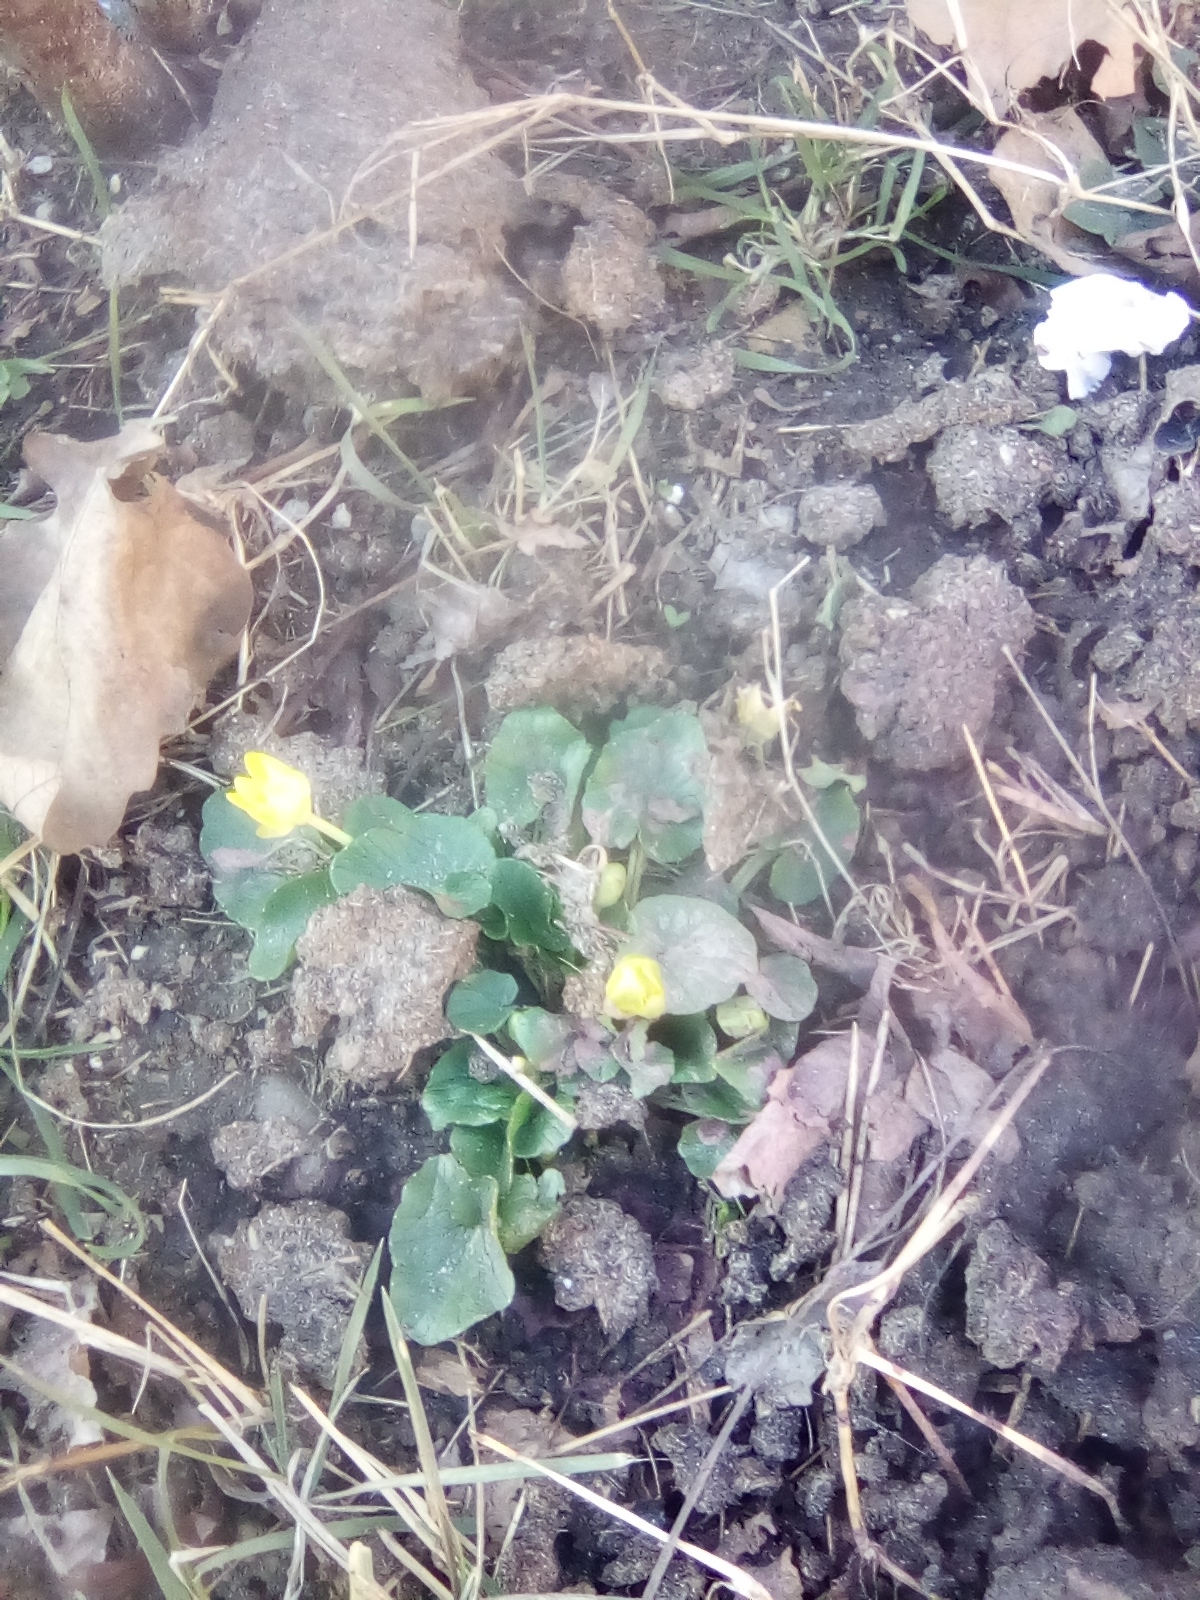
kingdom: Plantae
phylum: Tracheophyta
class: Magnoliopsida
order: Ranunculales
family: Ranunculaceae
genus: Ficaria
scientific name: Ficaria verna
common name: Lesser celandine
